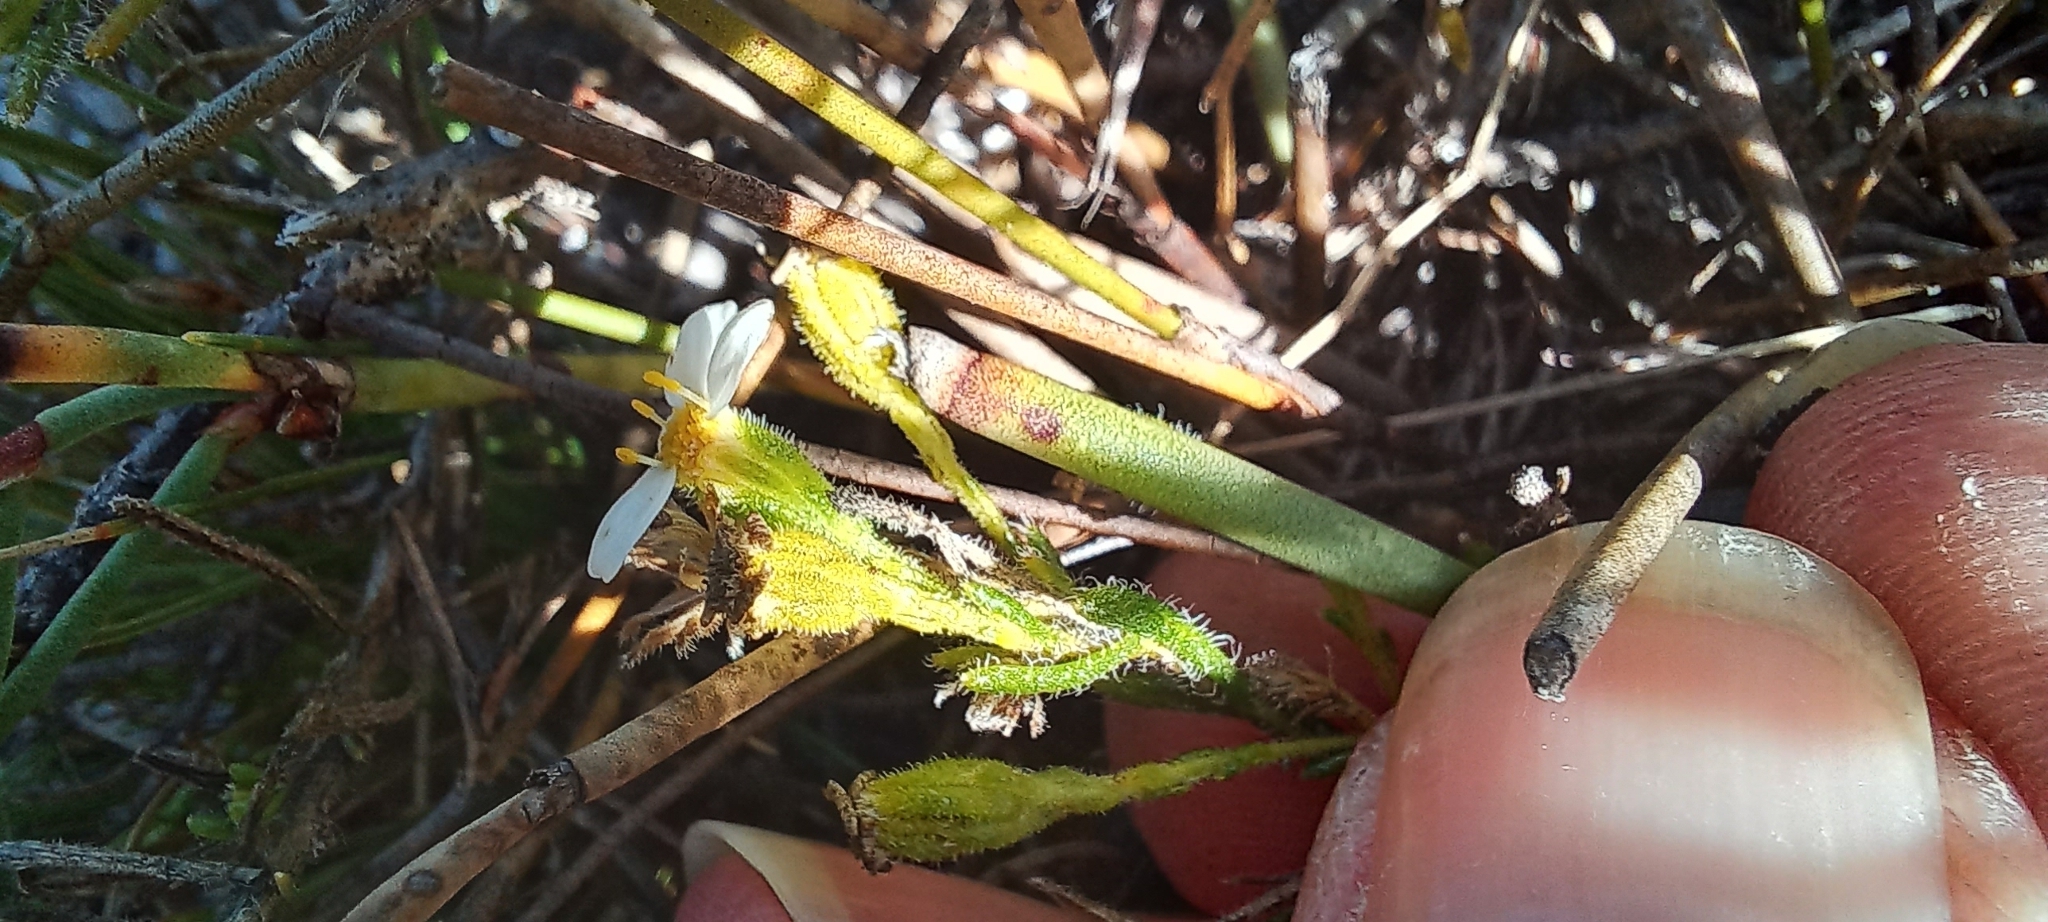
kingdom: Plantae
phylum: Tracheophyta
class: Magnoliopsida
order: Asterales
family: Asteraceae
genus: Zyrphelis
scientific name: Zyrphelis foliosa
